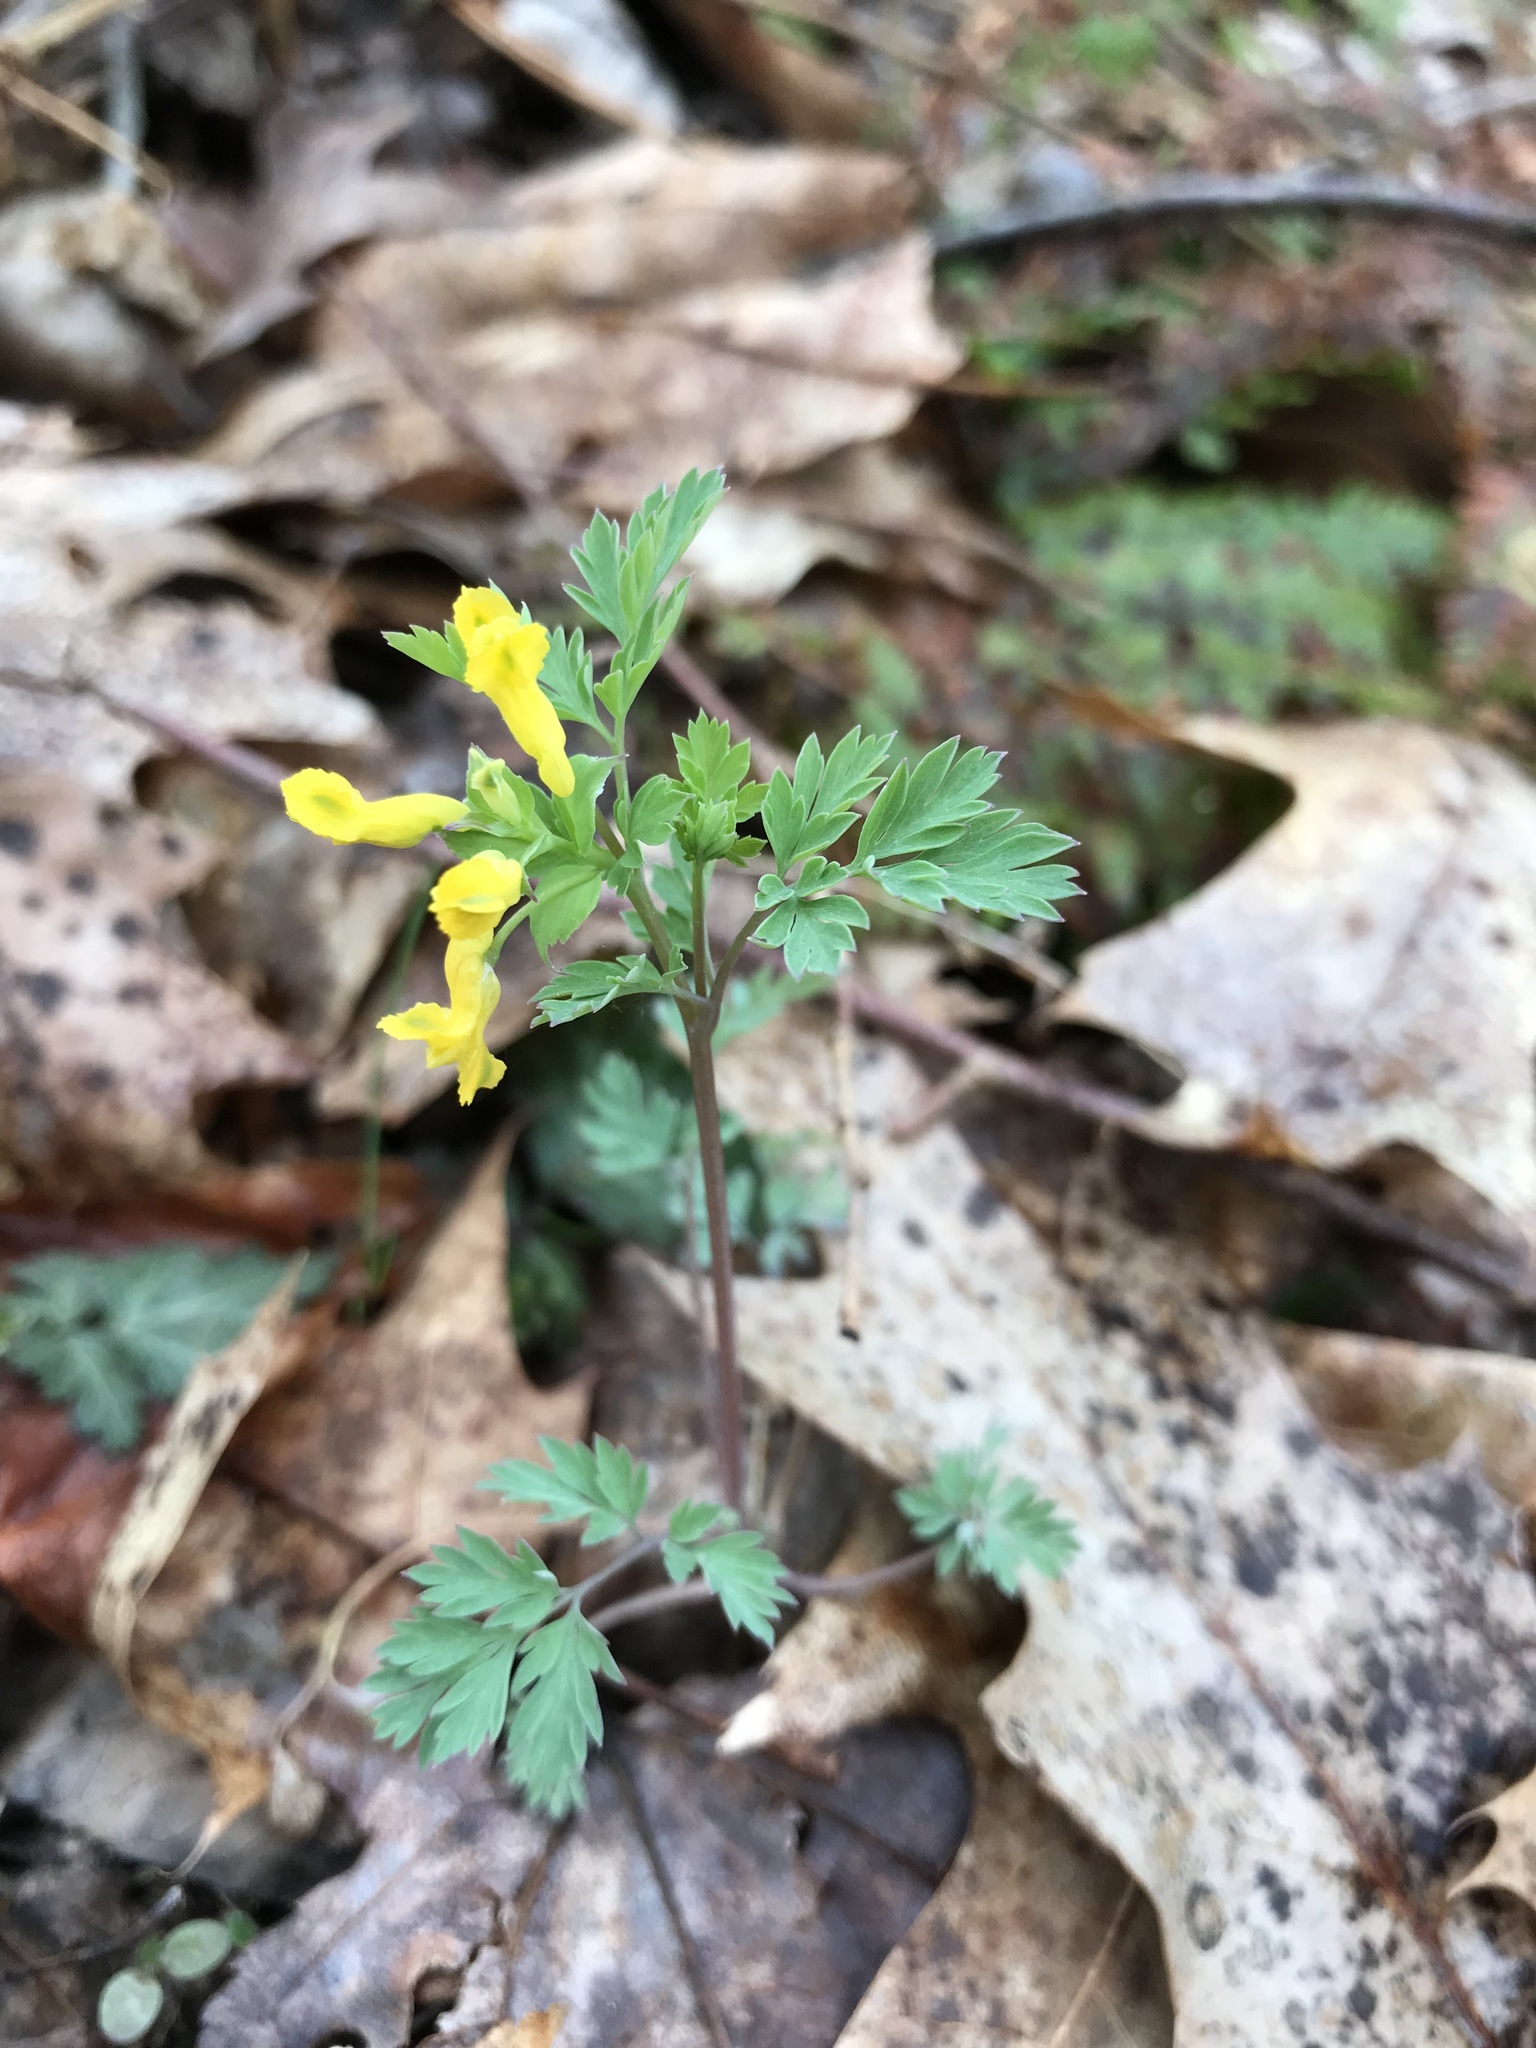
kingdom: Plantae
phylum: Tracheophyta
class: Magnoliopsida
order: Ranunculales
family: Papaveraceae
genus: Corydalis
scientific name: Corydalis flavula
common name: Yellow corydalis
